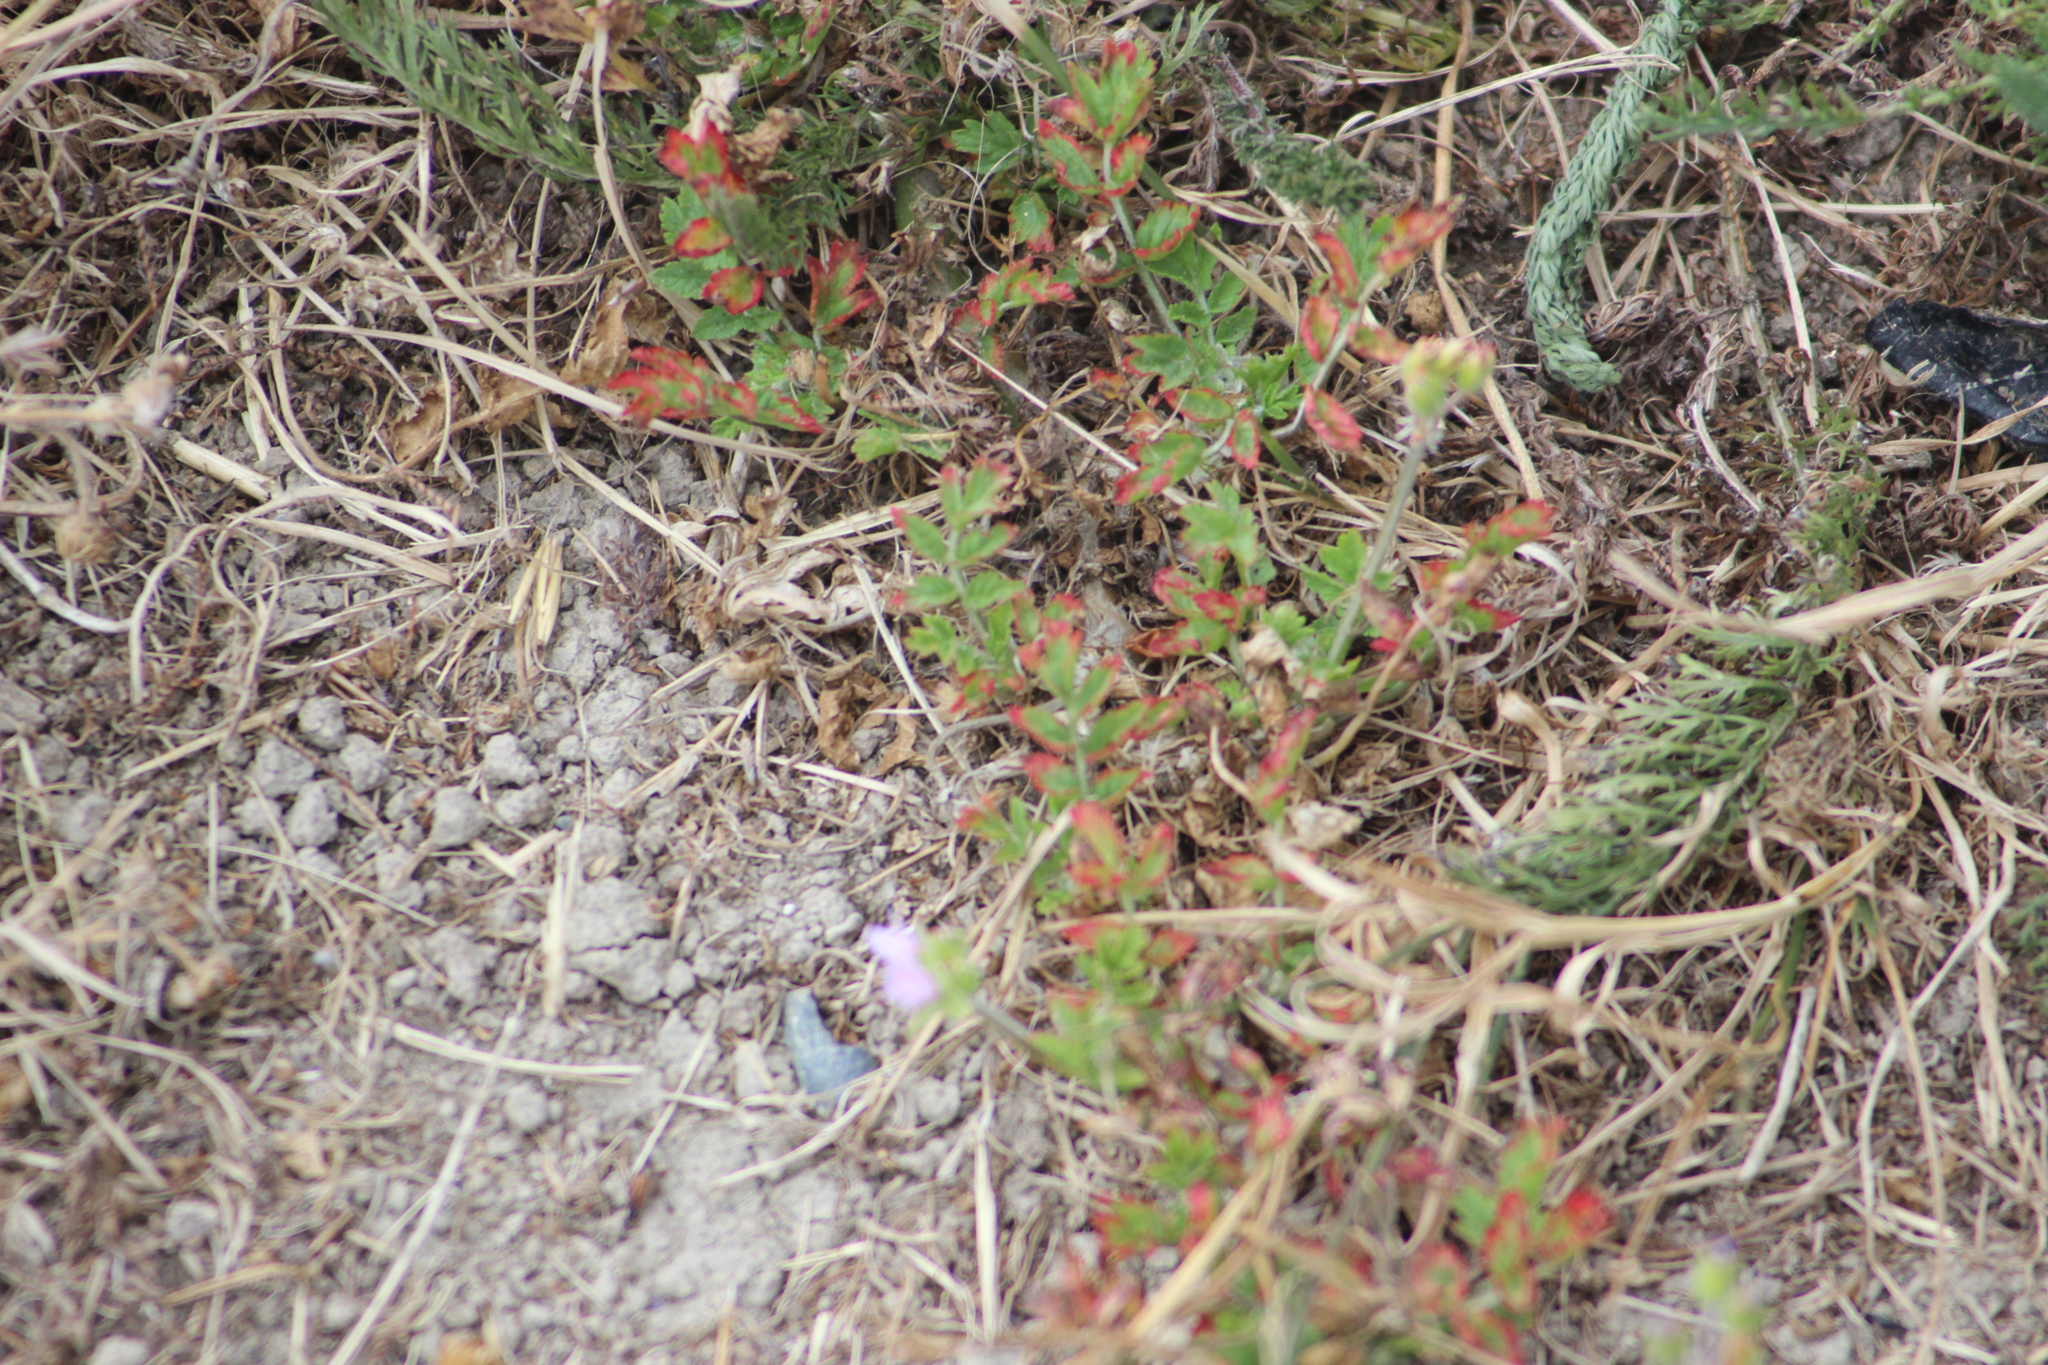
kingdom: Plantae
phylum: Tracheophyta
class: Magnoliopsida
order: Geraniales
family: Geraniaceae
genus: Erodium
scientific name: Erodium moschatum
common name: Musk stork's-bill
